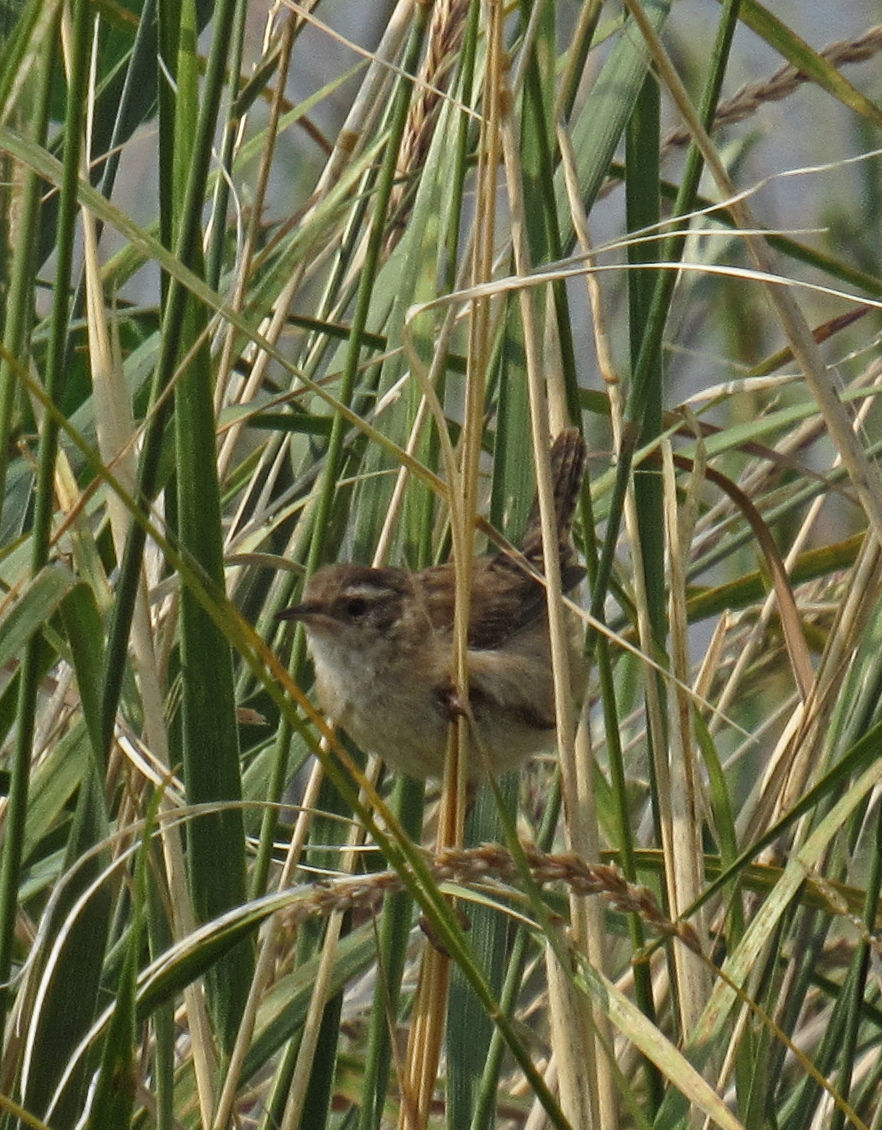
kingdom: Animalia
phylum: Chordata
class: Aves
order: Passeriformes
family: Troglodytidae
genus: Cistothorus
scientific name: Cistothorus palustris
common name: Marsh wren
